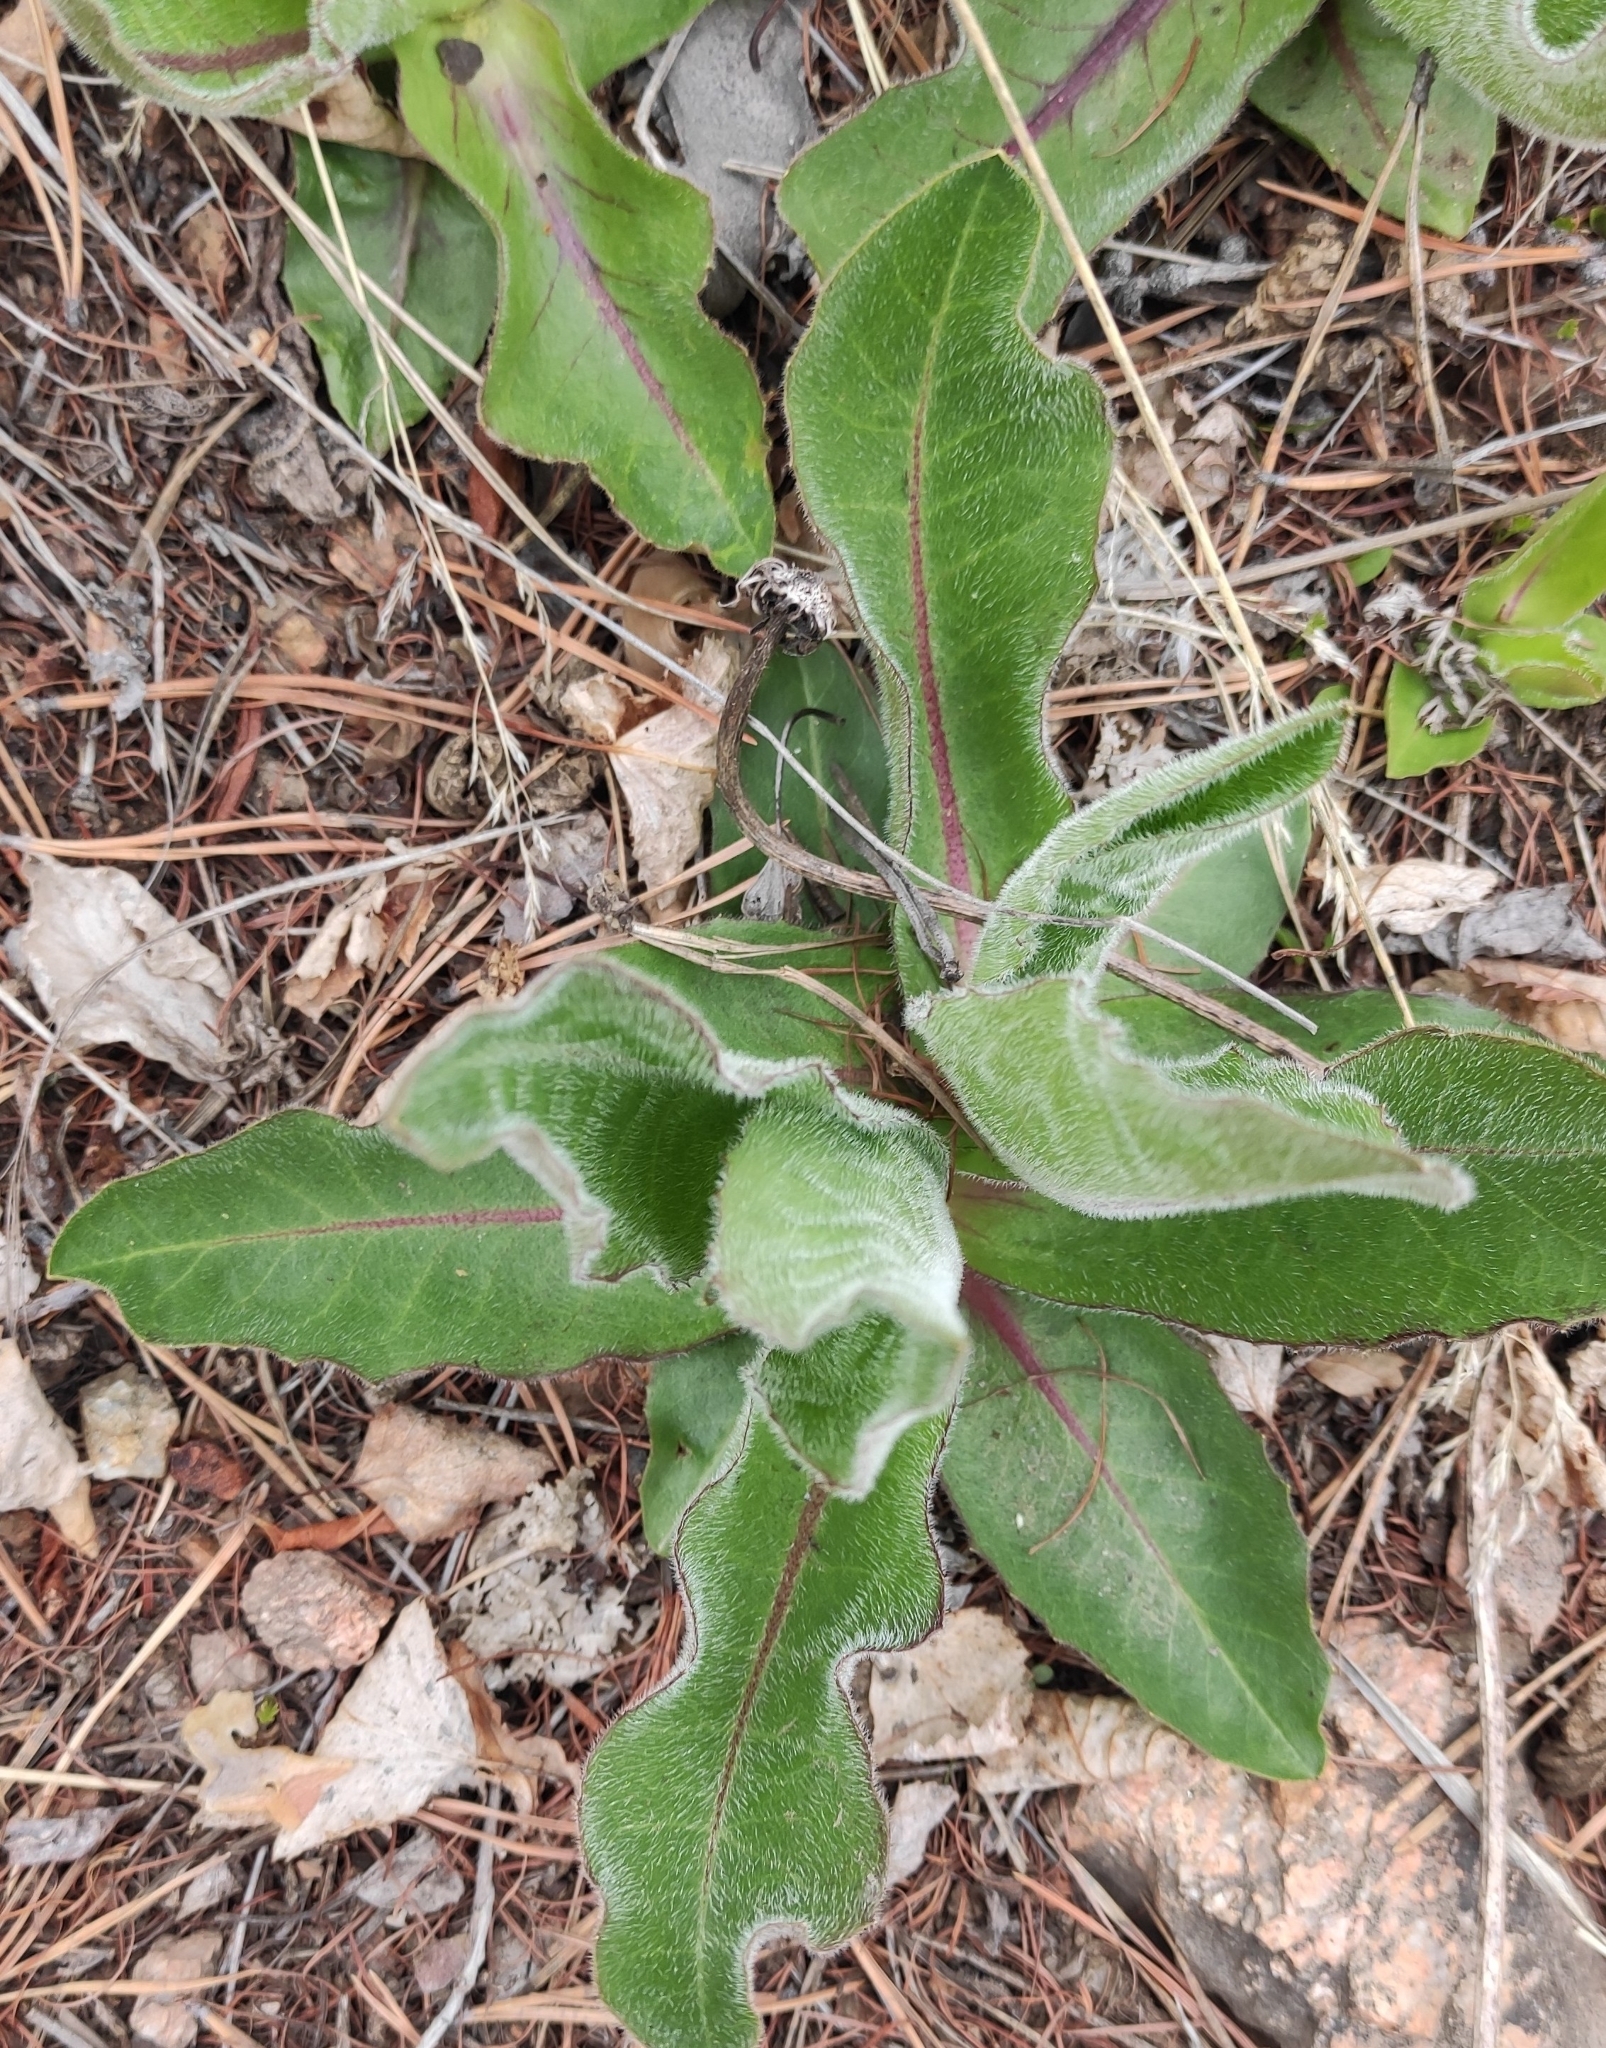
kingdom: Plantae
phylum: Tracheophyta
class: Magnoliopsida
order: Asterales
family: Asteraceae
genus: Trommsdorffia
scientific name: Trommsdorffia maculata
